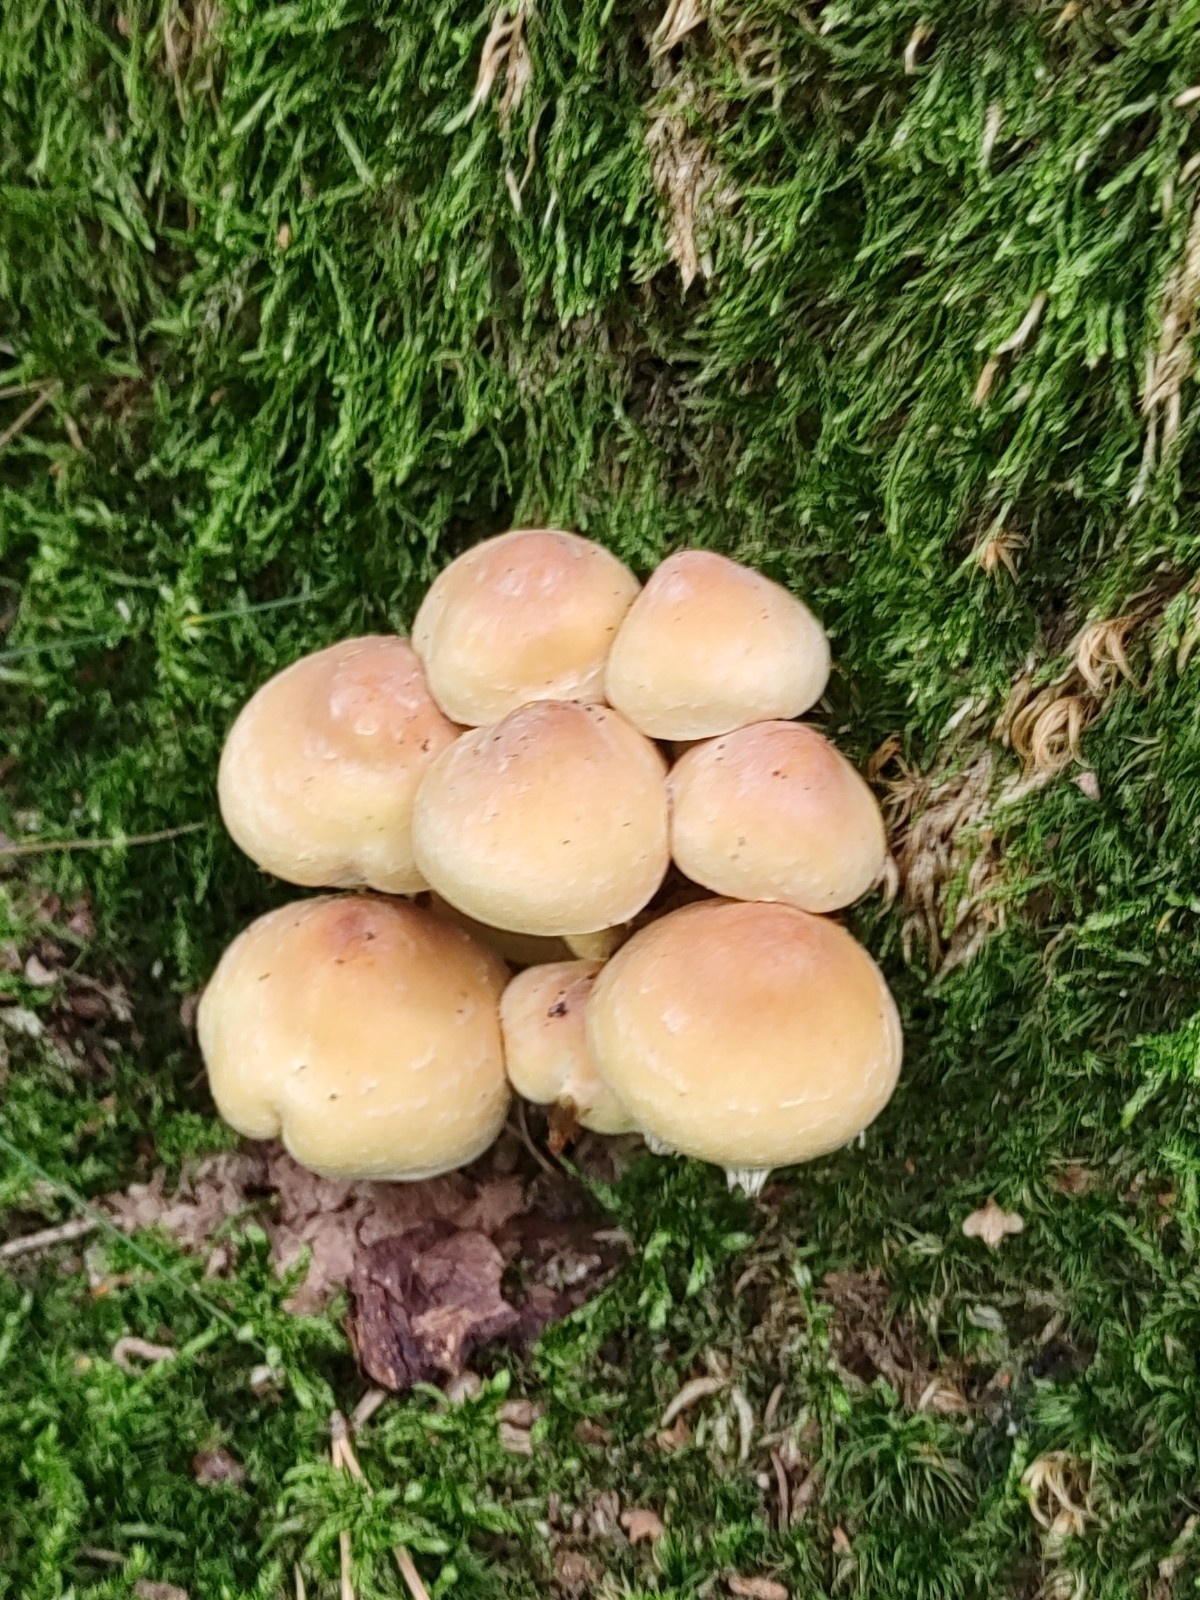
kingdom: Fungi
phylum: Basidiomycota
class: Agaricomycetes
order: Agaricales
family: Strophariaceae
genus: Hypholoma
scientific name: Hypholoma fasciculare
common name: Sulphur tuft
